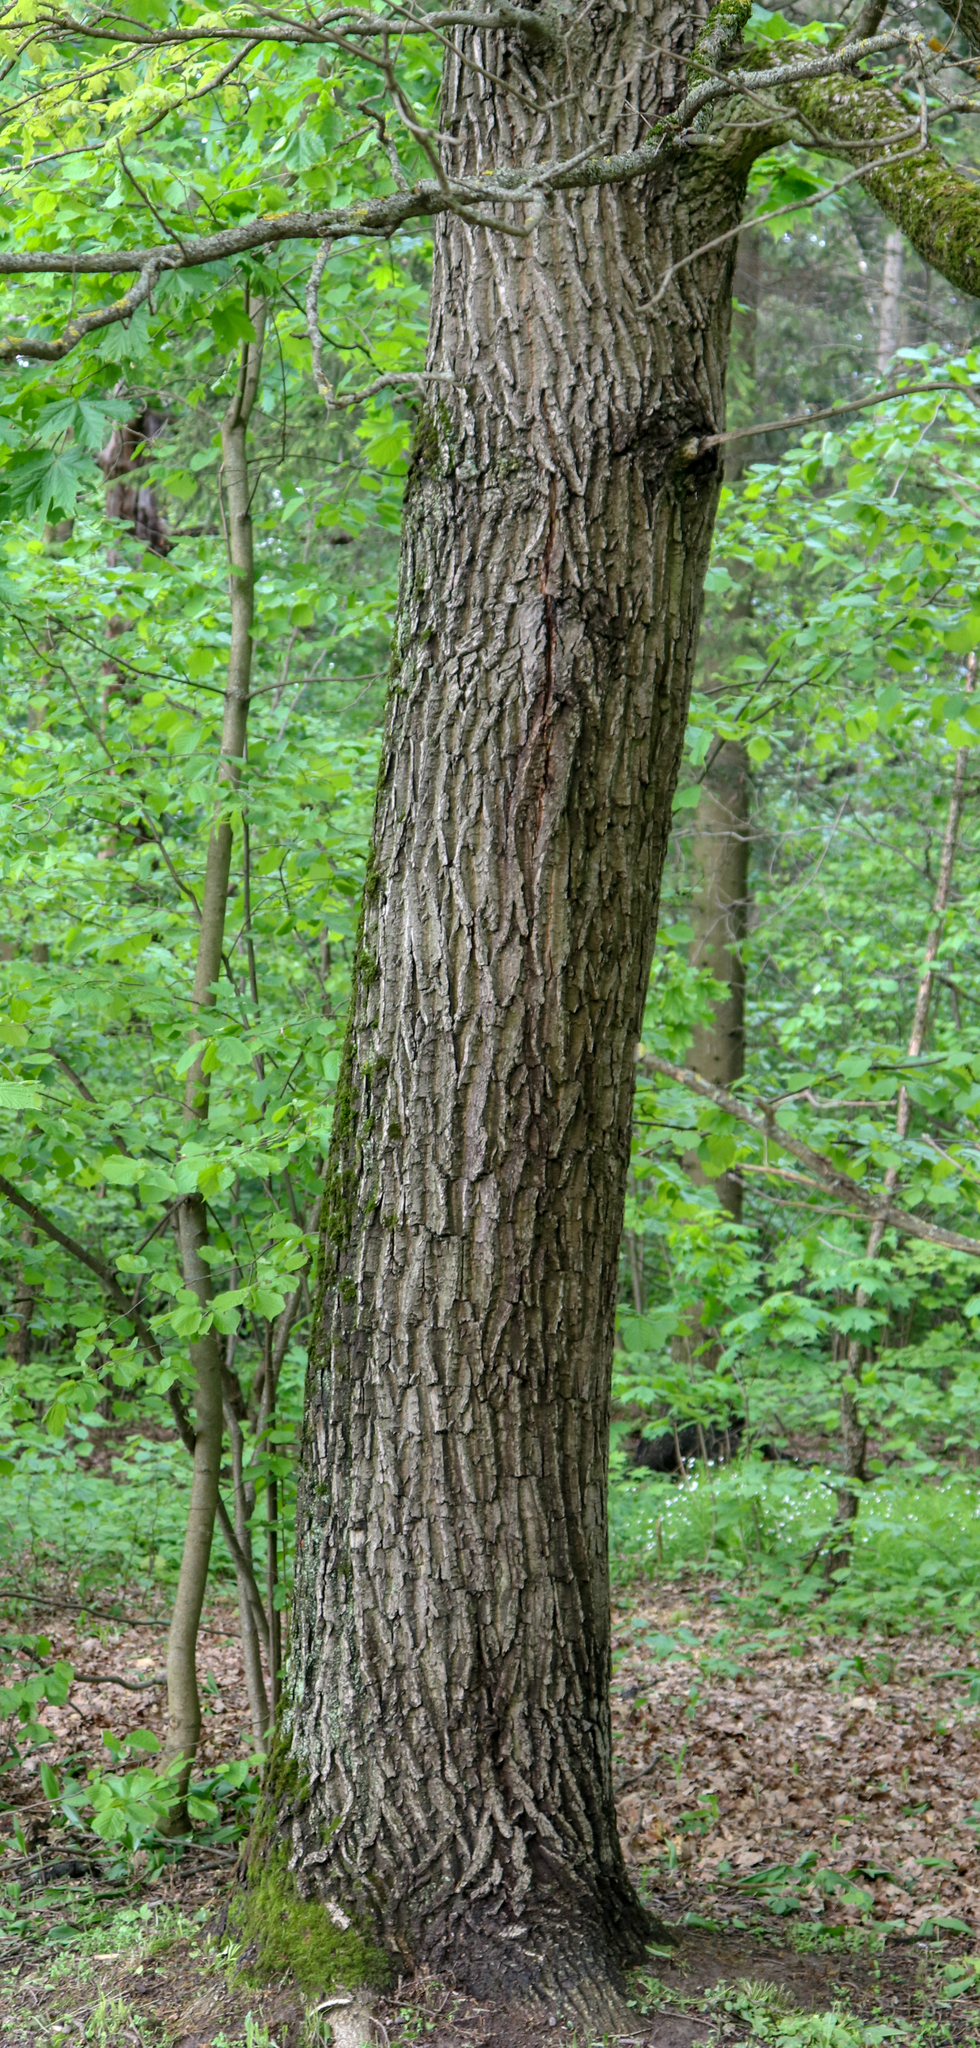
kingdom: Plantae
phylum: Tracheophyta
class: Magnoliopsida
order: Fagales
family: Fagaceae
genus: Quercus
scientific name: Quercus robur
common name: Pedunculate oak
